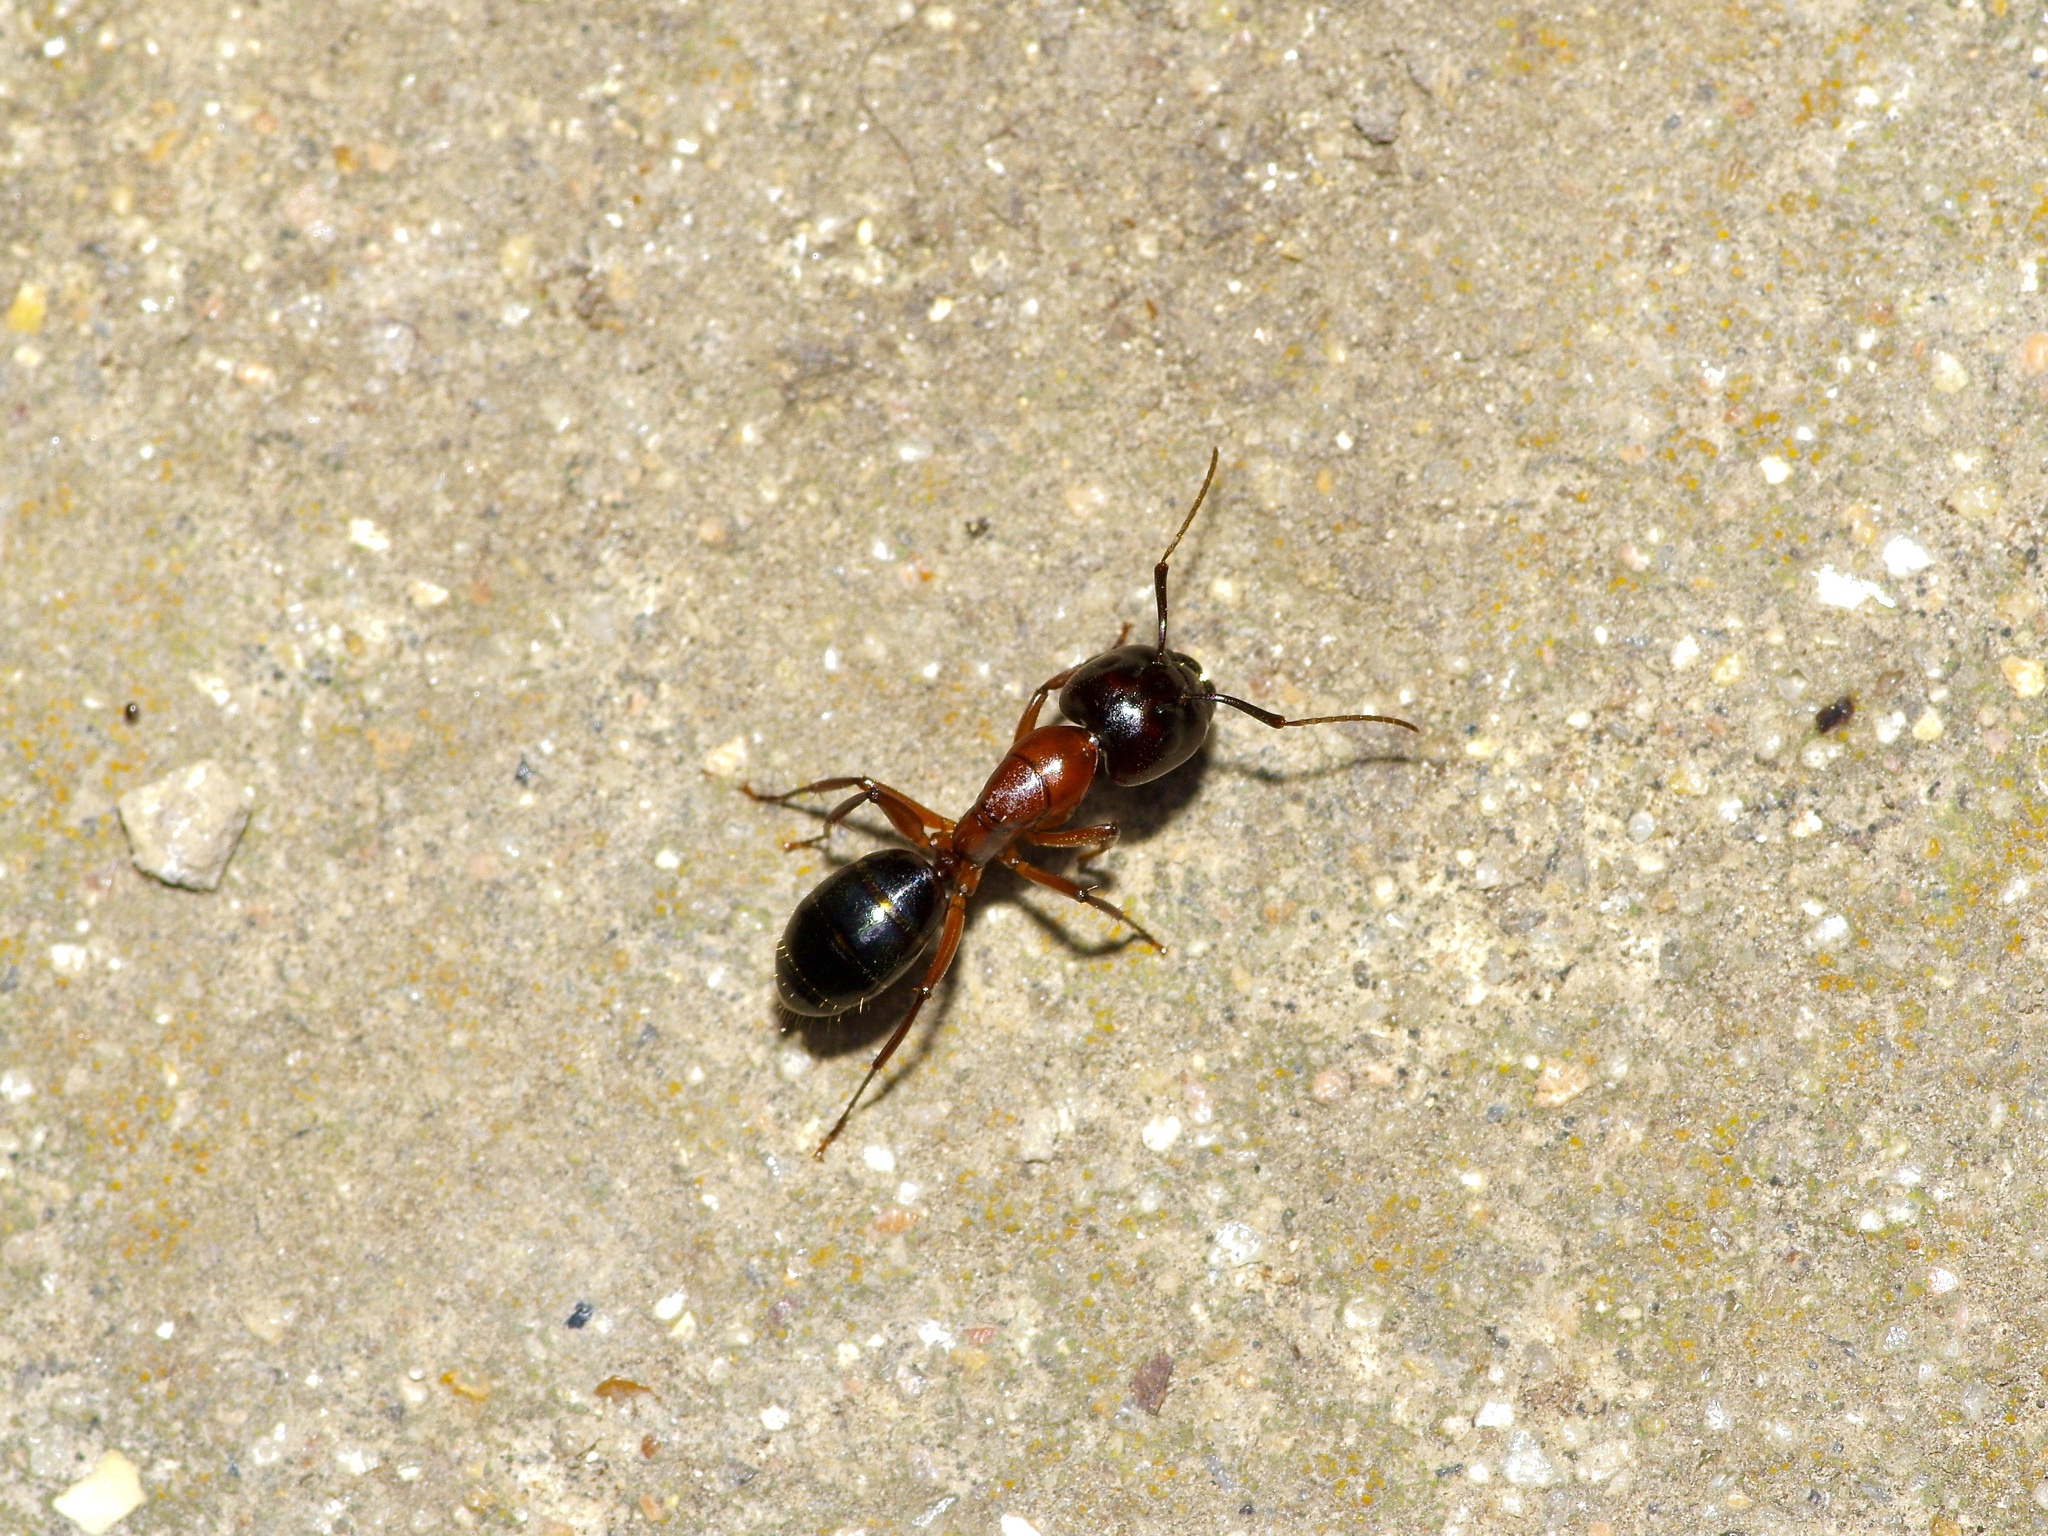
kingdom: Animalia
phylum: Arthropoda
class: Insecta
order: Hymenoptera
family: Formicidae
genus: Camponotus
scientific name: Camponotus texanus
